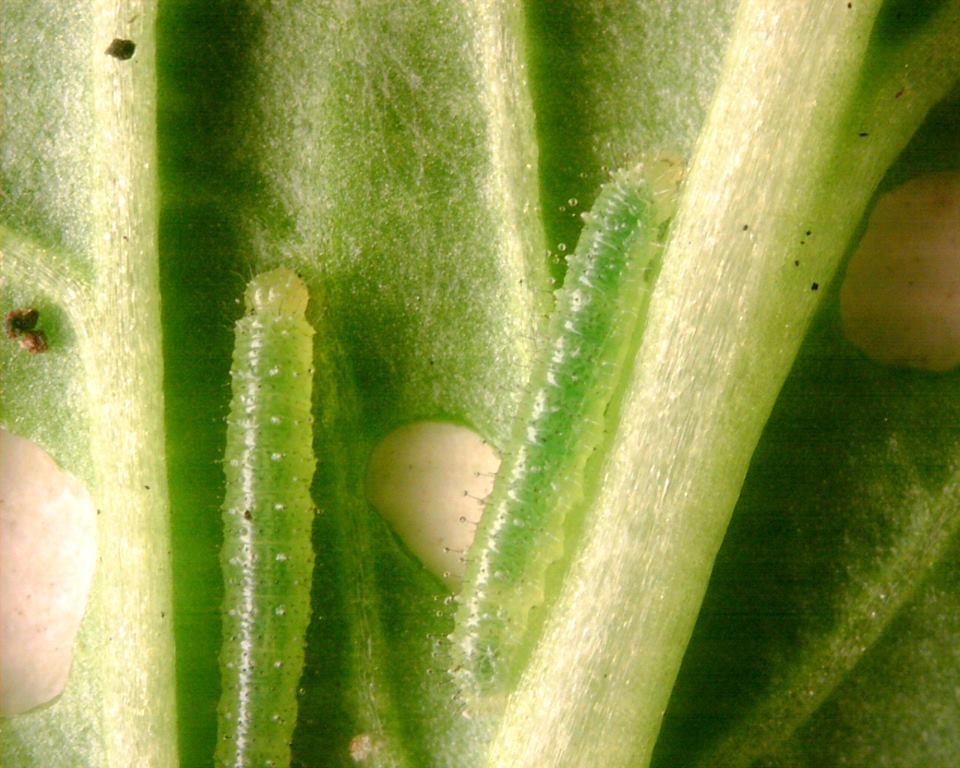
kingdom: Animalia
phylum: Arthropoda
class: Insecta
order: Lepidoptera
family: Pieridae
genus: Pieris
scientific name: Pieris rapae
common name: Small white
